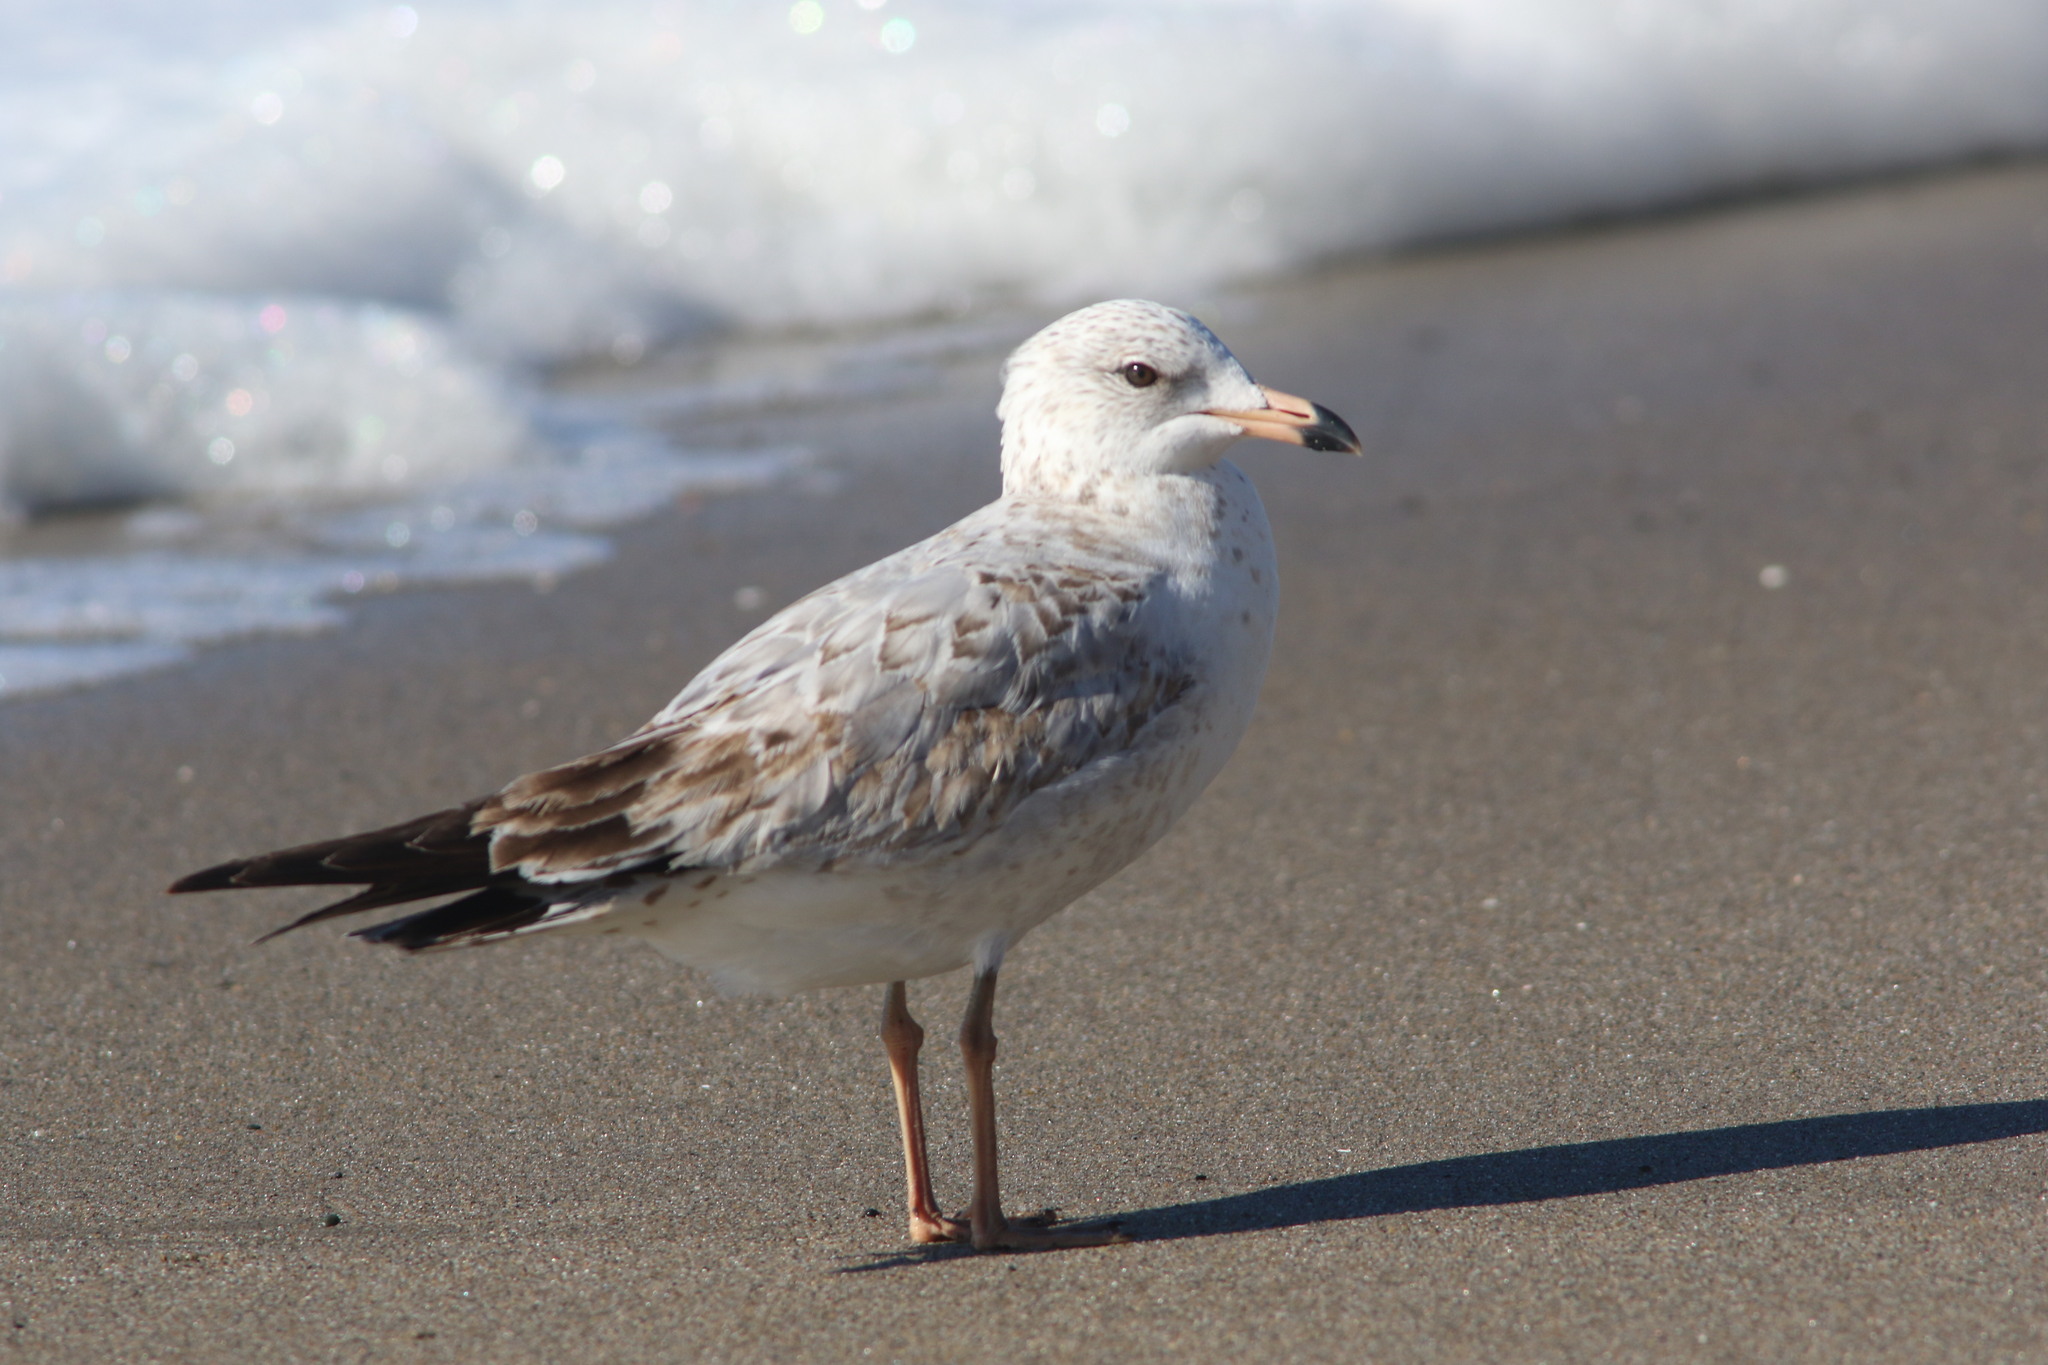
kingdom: Animalia
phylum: Chordata
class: Aves
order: Charadriiformes
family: Laridae
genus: Larus
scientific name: Larus delawarensis
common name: Ring-billed gull
